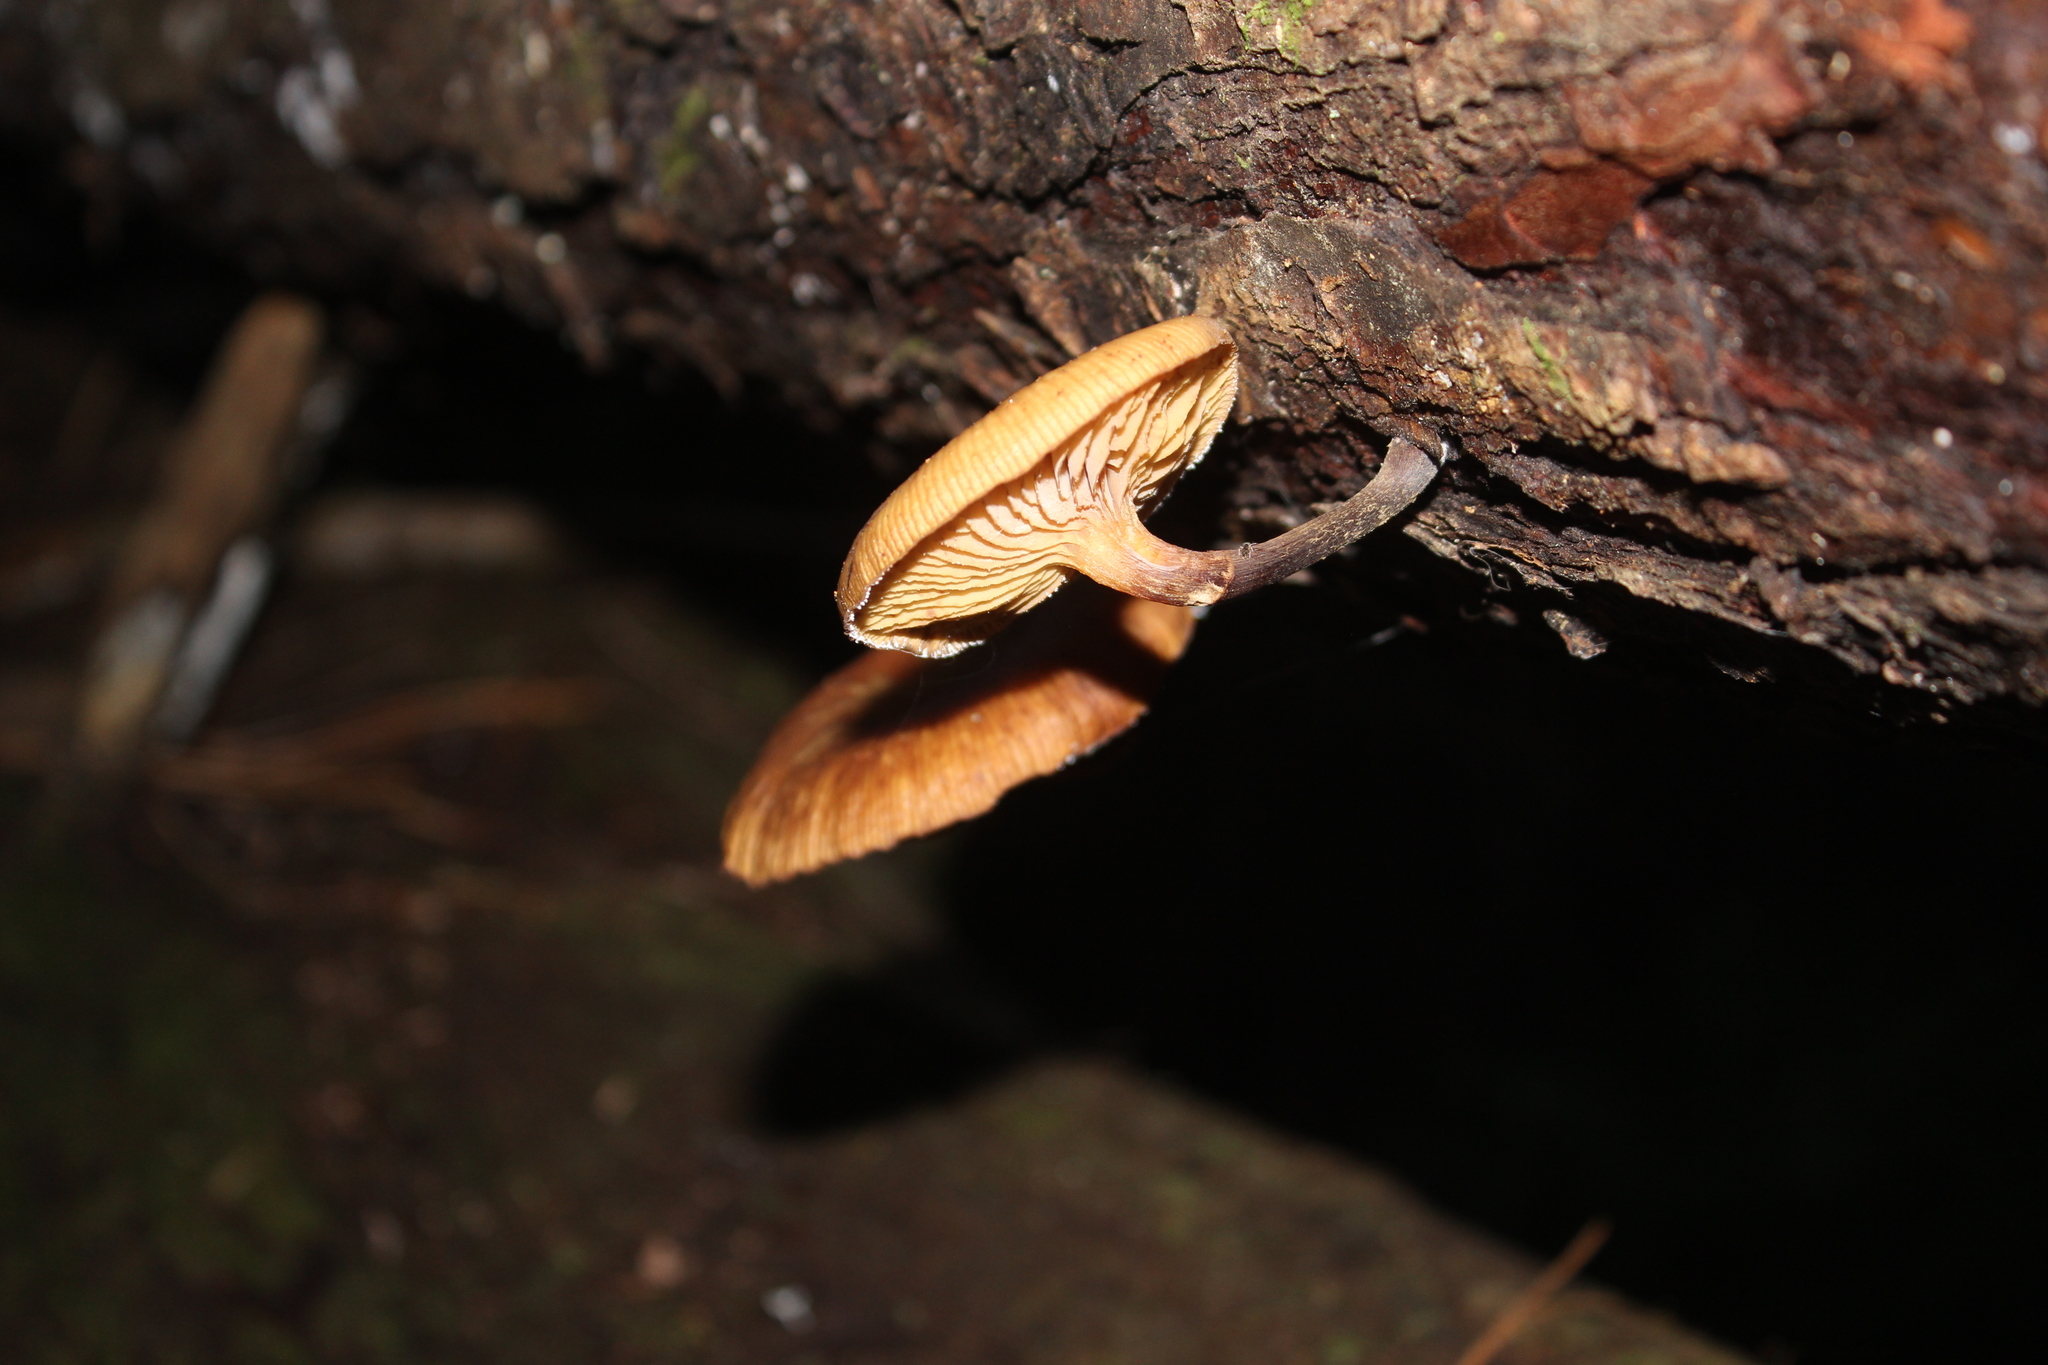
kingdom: Fungi
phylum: Basidiomycota
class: Agaricomycetes
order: Agaricales
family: Physalacriaceae
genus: Armillaria
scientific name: Armillaria novae-zelandiae
